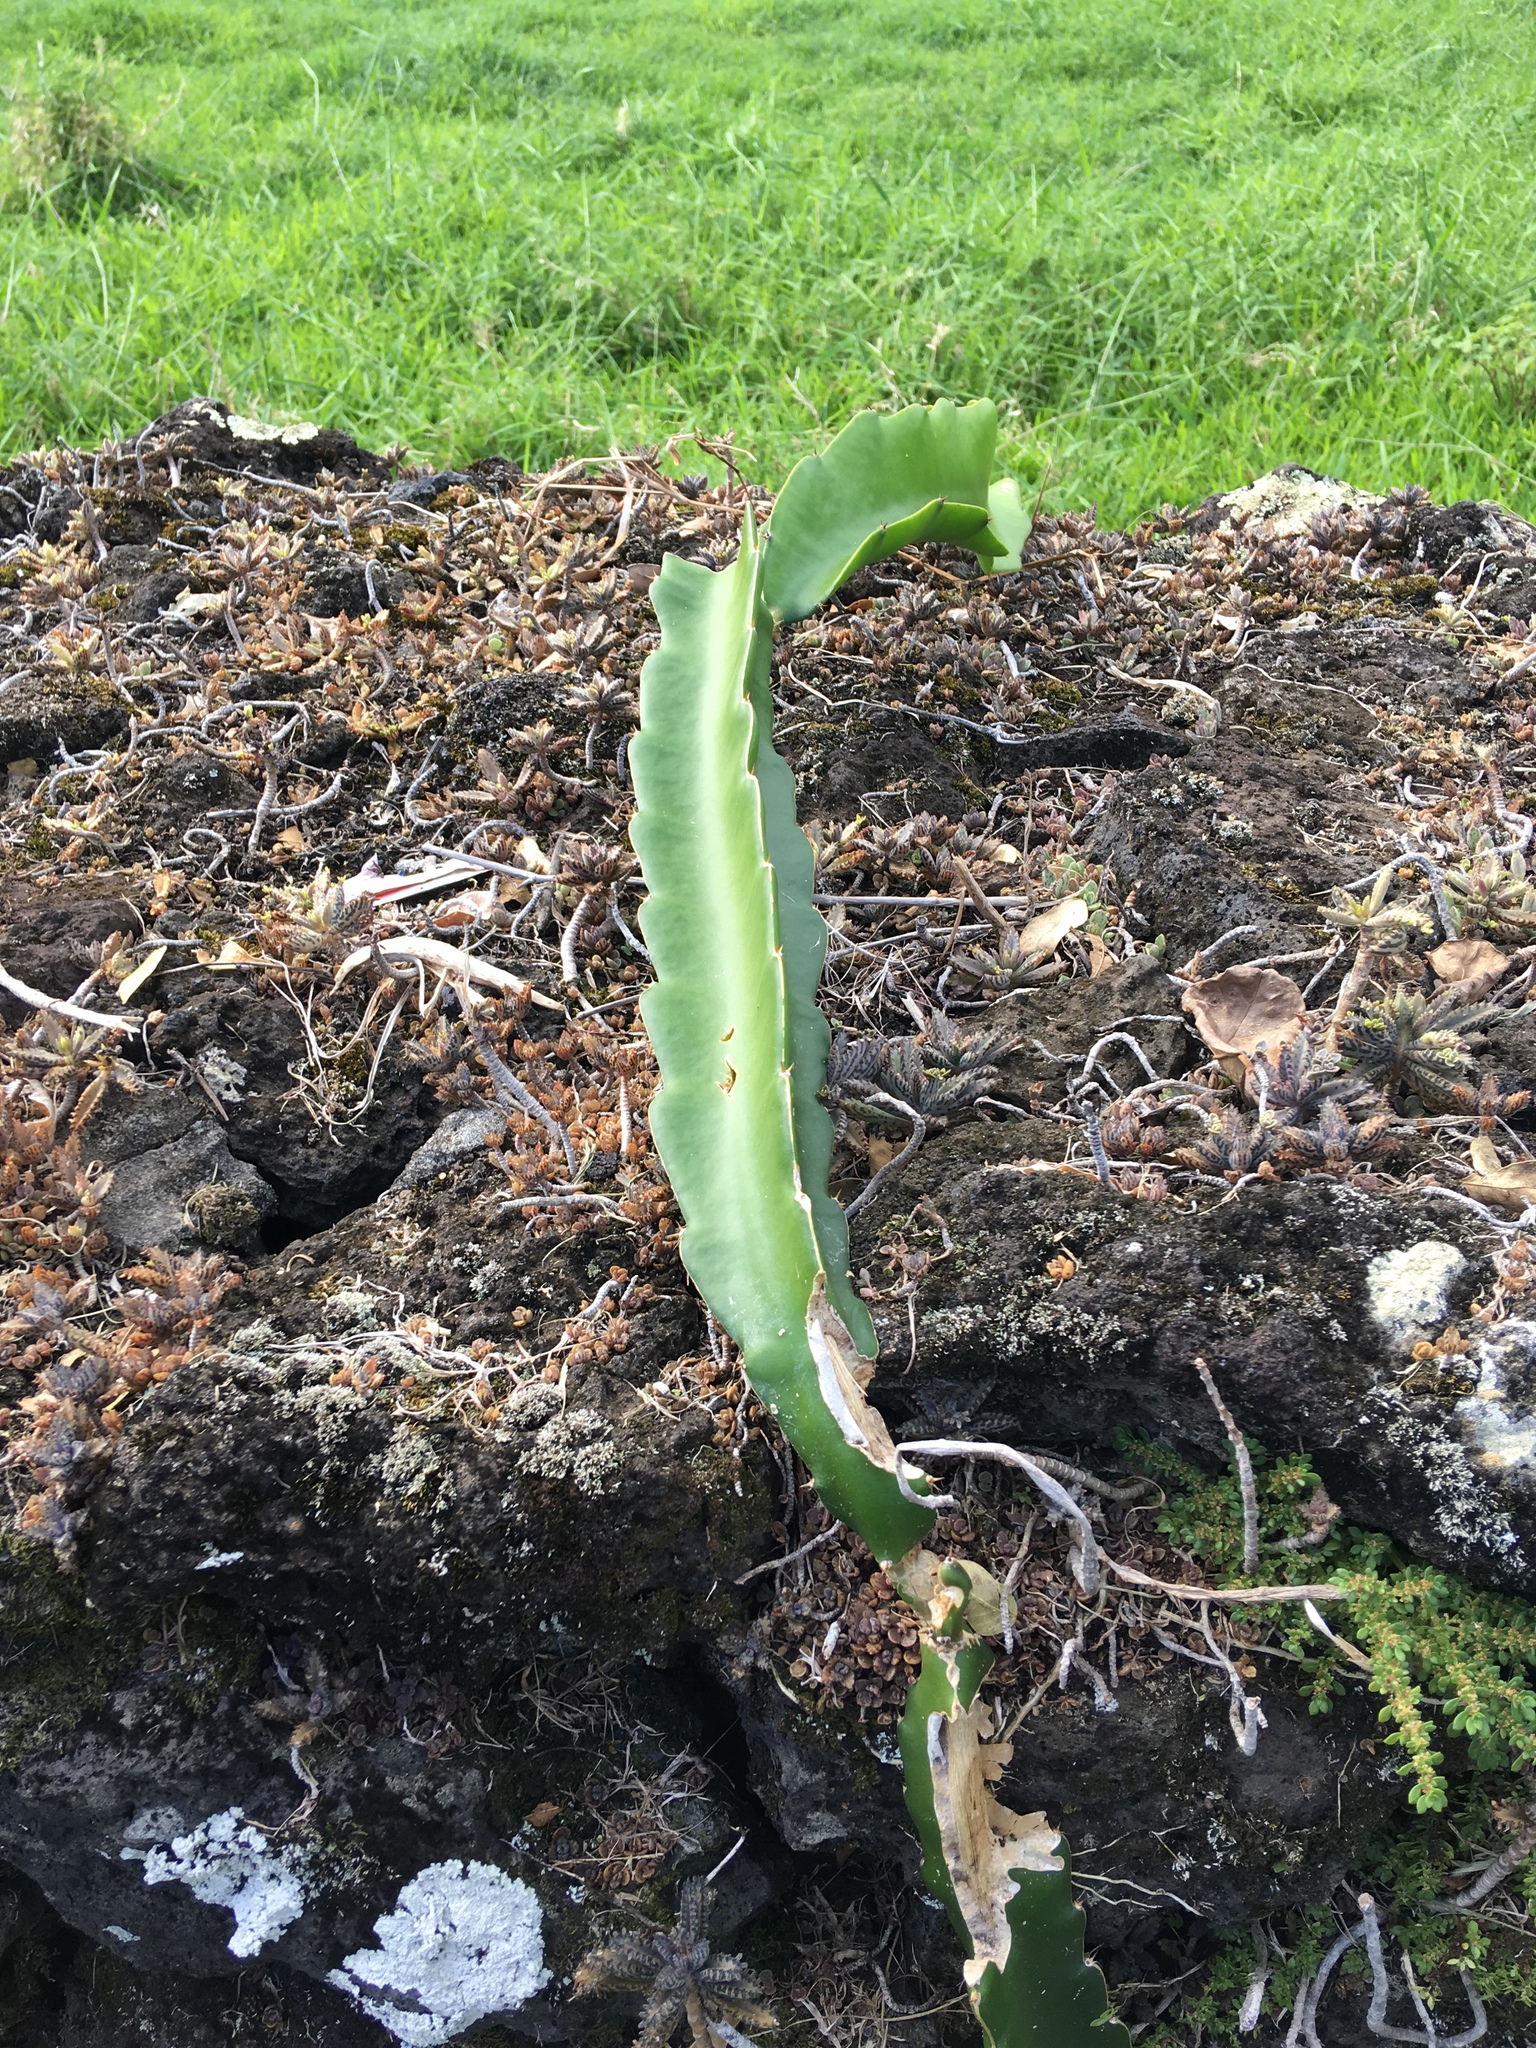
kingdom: Plantae
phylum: Tracheophyta
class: Magnoliopsida
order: Caryophyllales
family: Cactaceae
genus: Selenicereus
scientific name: Selenicereus undatus
